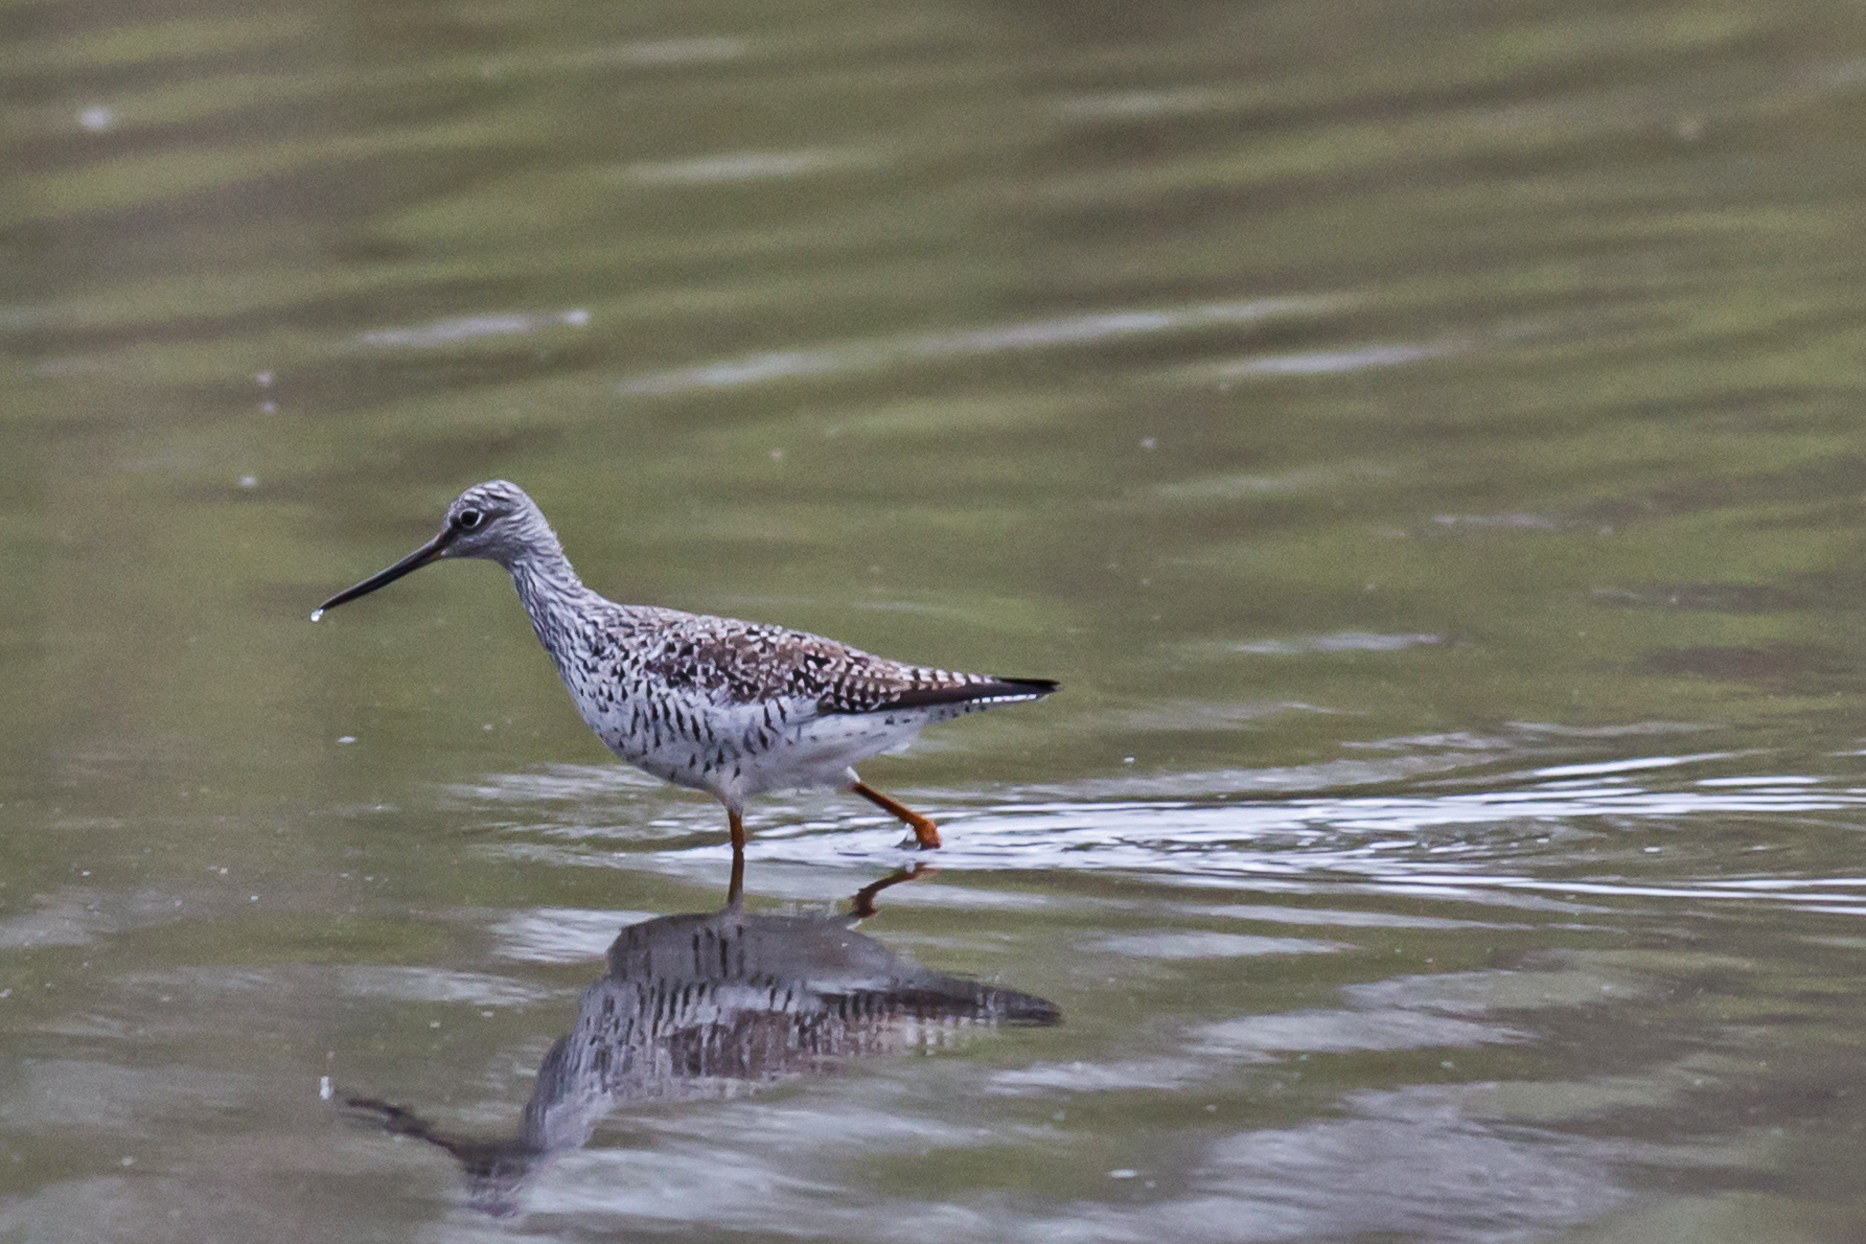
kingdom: Animalia
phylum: Chordata
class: Aves
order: Charadriiformes
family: Scolopacidae
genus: Tringa
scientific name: Tringa melanoleuca
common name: Greater yellowlegs
